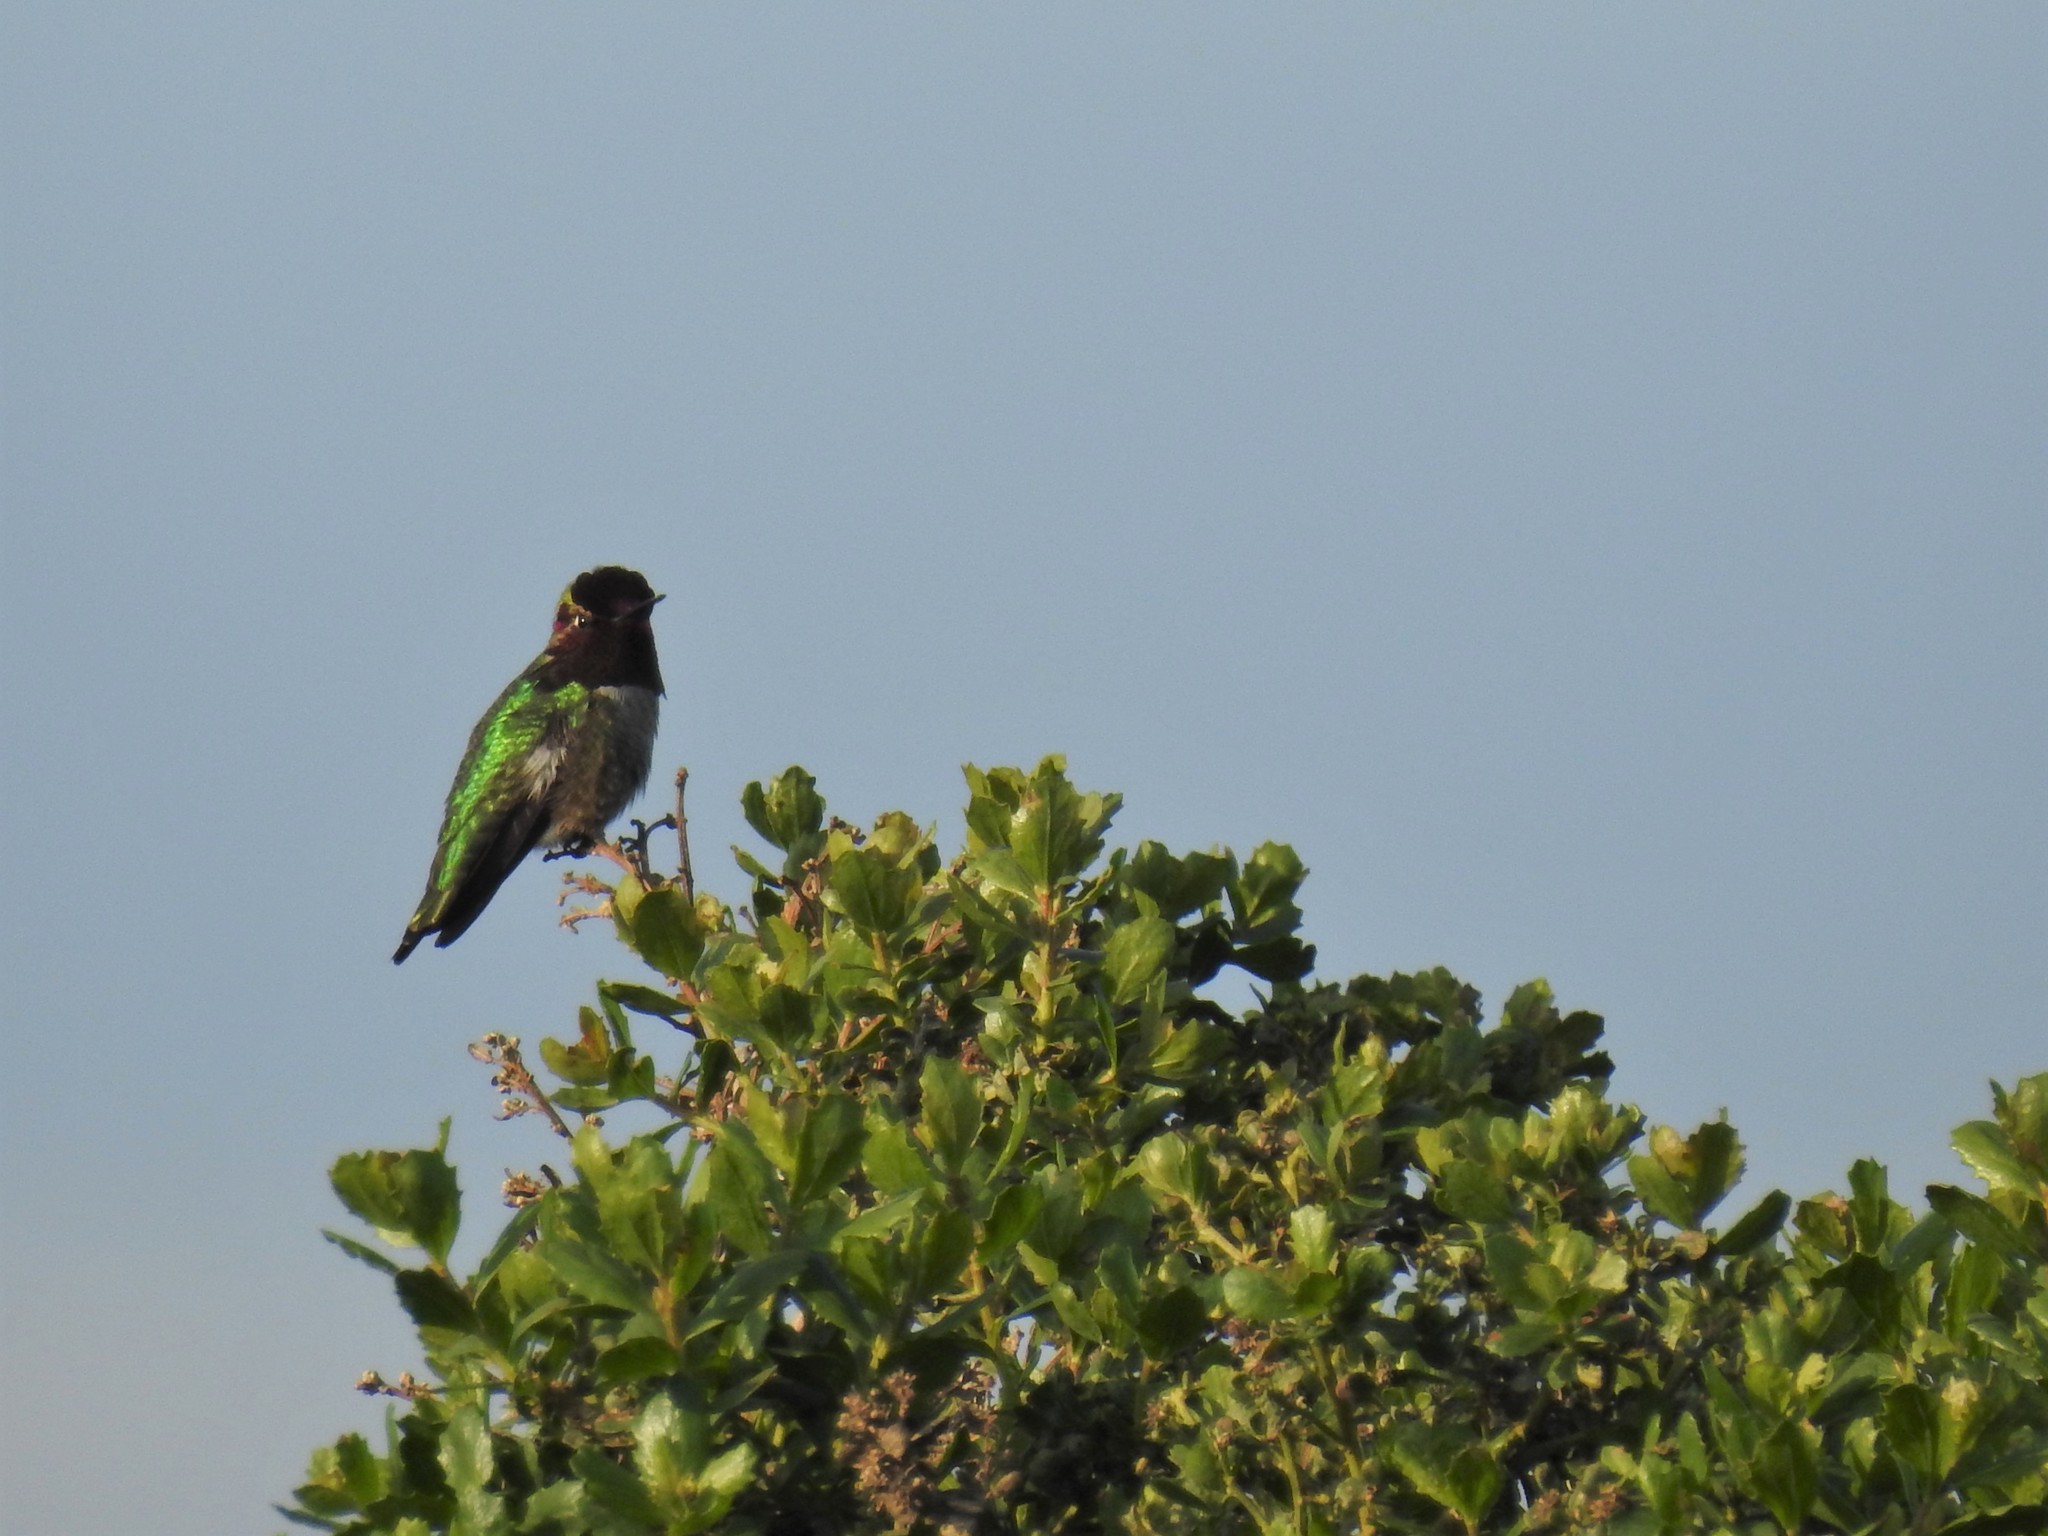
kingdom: Animalia
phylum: Chordata
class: Aves
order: Apodiformes
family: Trochilidae
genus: Calypte
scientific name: Calypte anna
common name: Anna's hummingbird
